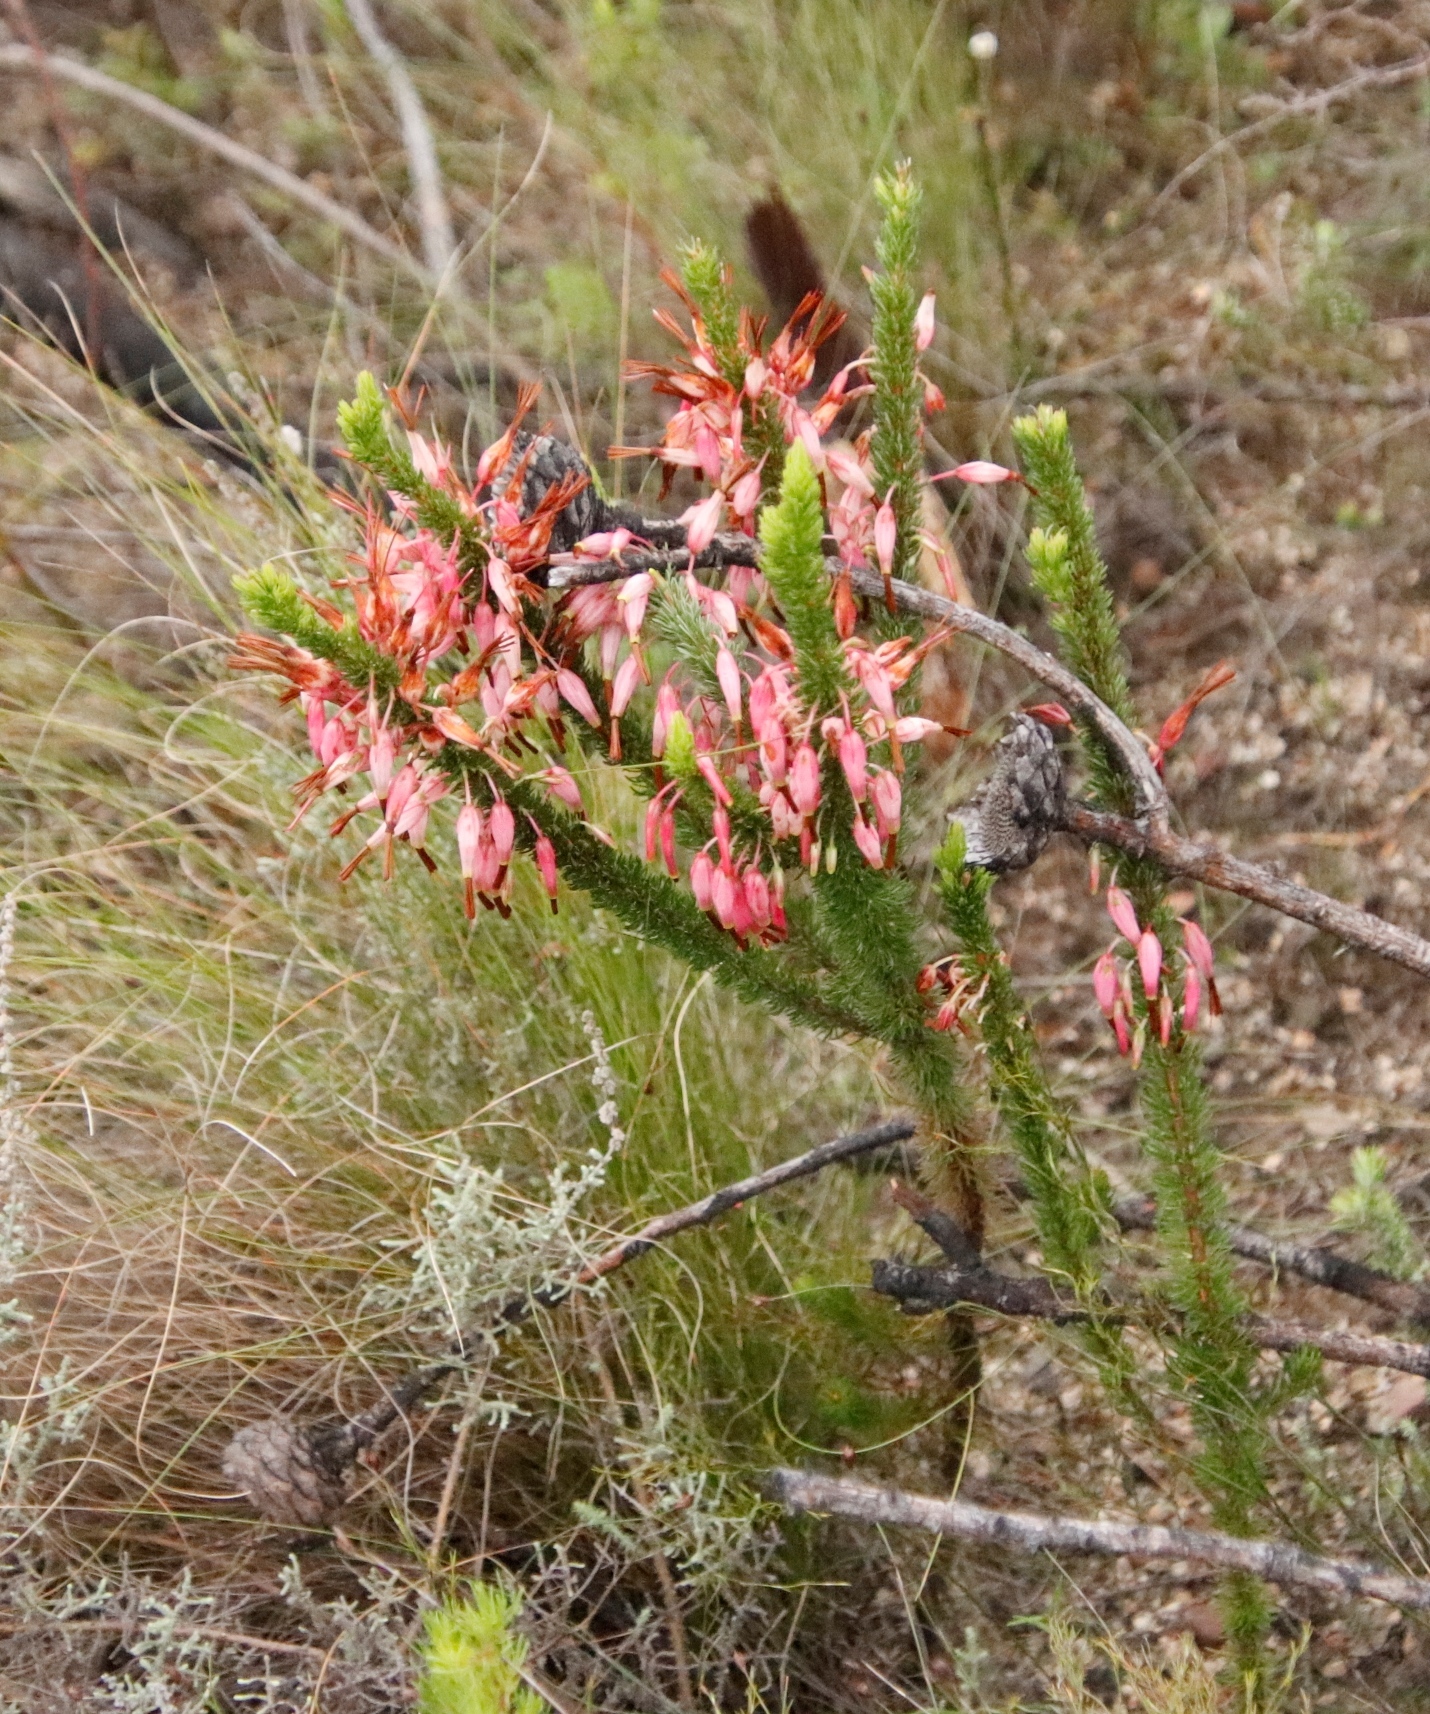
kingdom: Plantae
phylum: Tracheophyta
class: Magnoliopsida
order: Ericales
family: Ericaceae
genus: Erica
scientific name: Erica plukenetii
